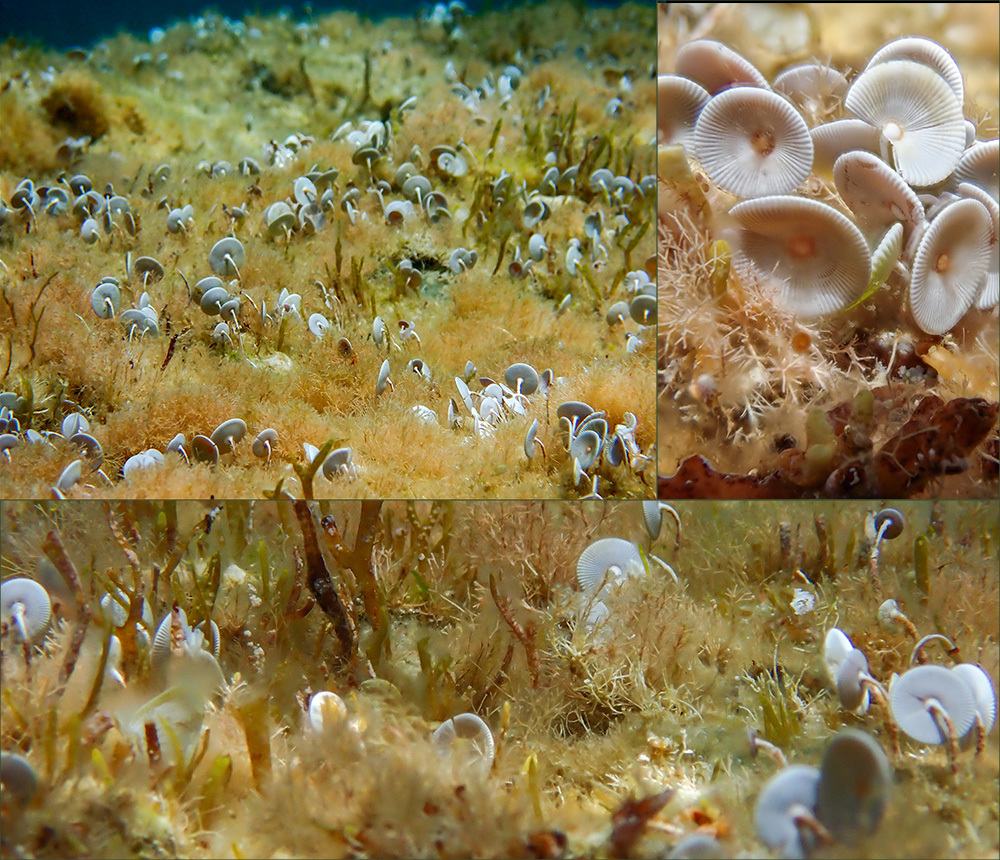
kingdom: Plantae
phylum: Chlorophyta
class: Ulvophyceae
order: Dasycladales
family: Polyphysaceae
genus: Acetabularia
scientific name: Acetabularia acetabulum
